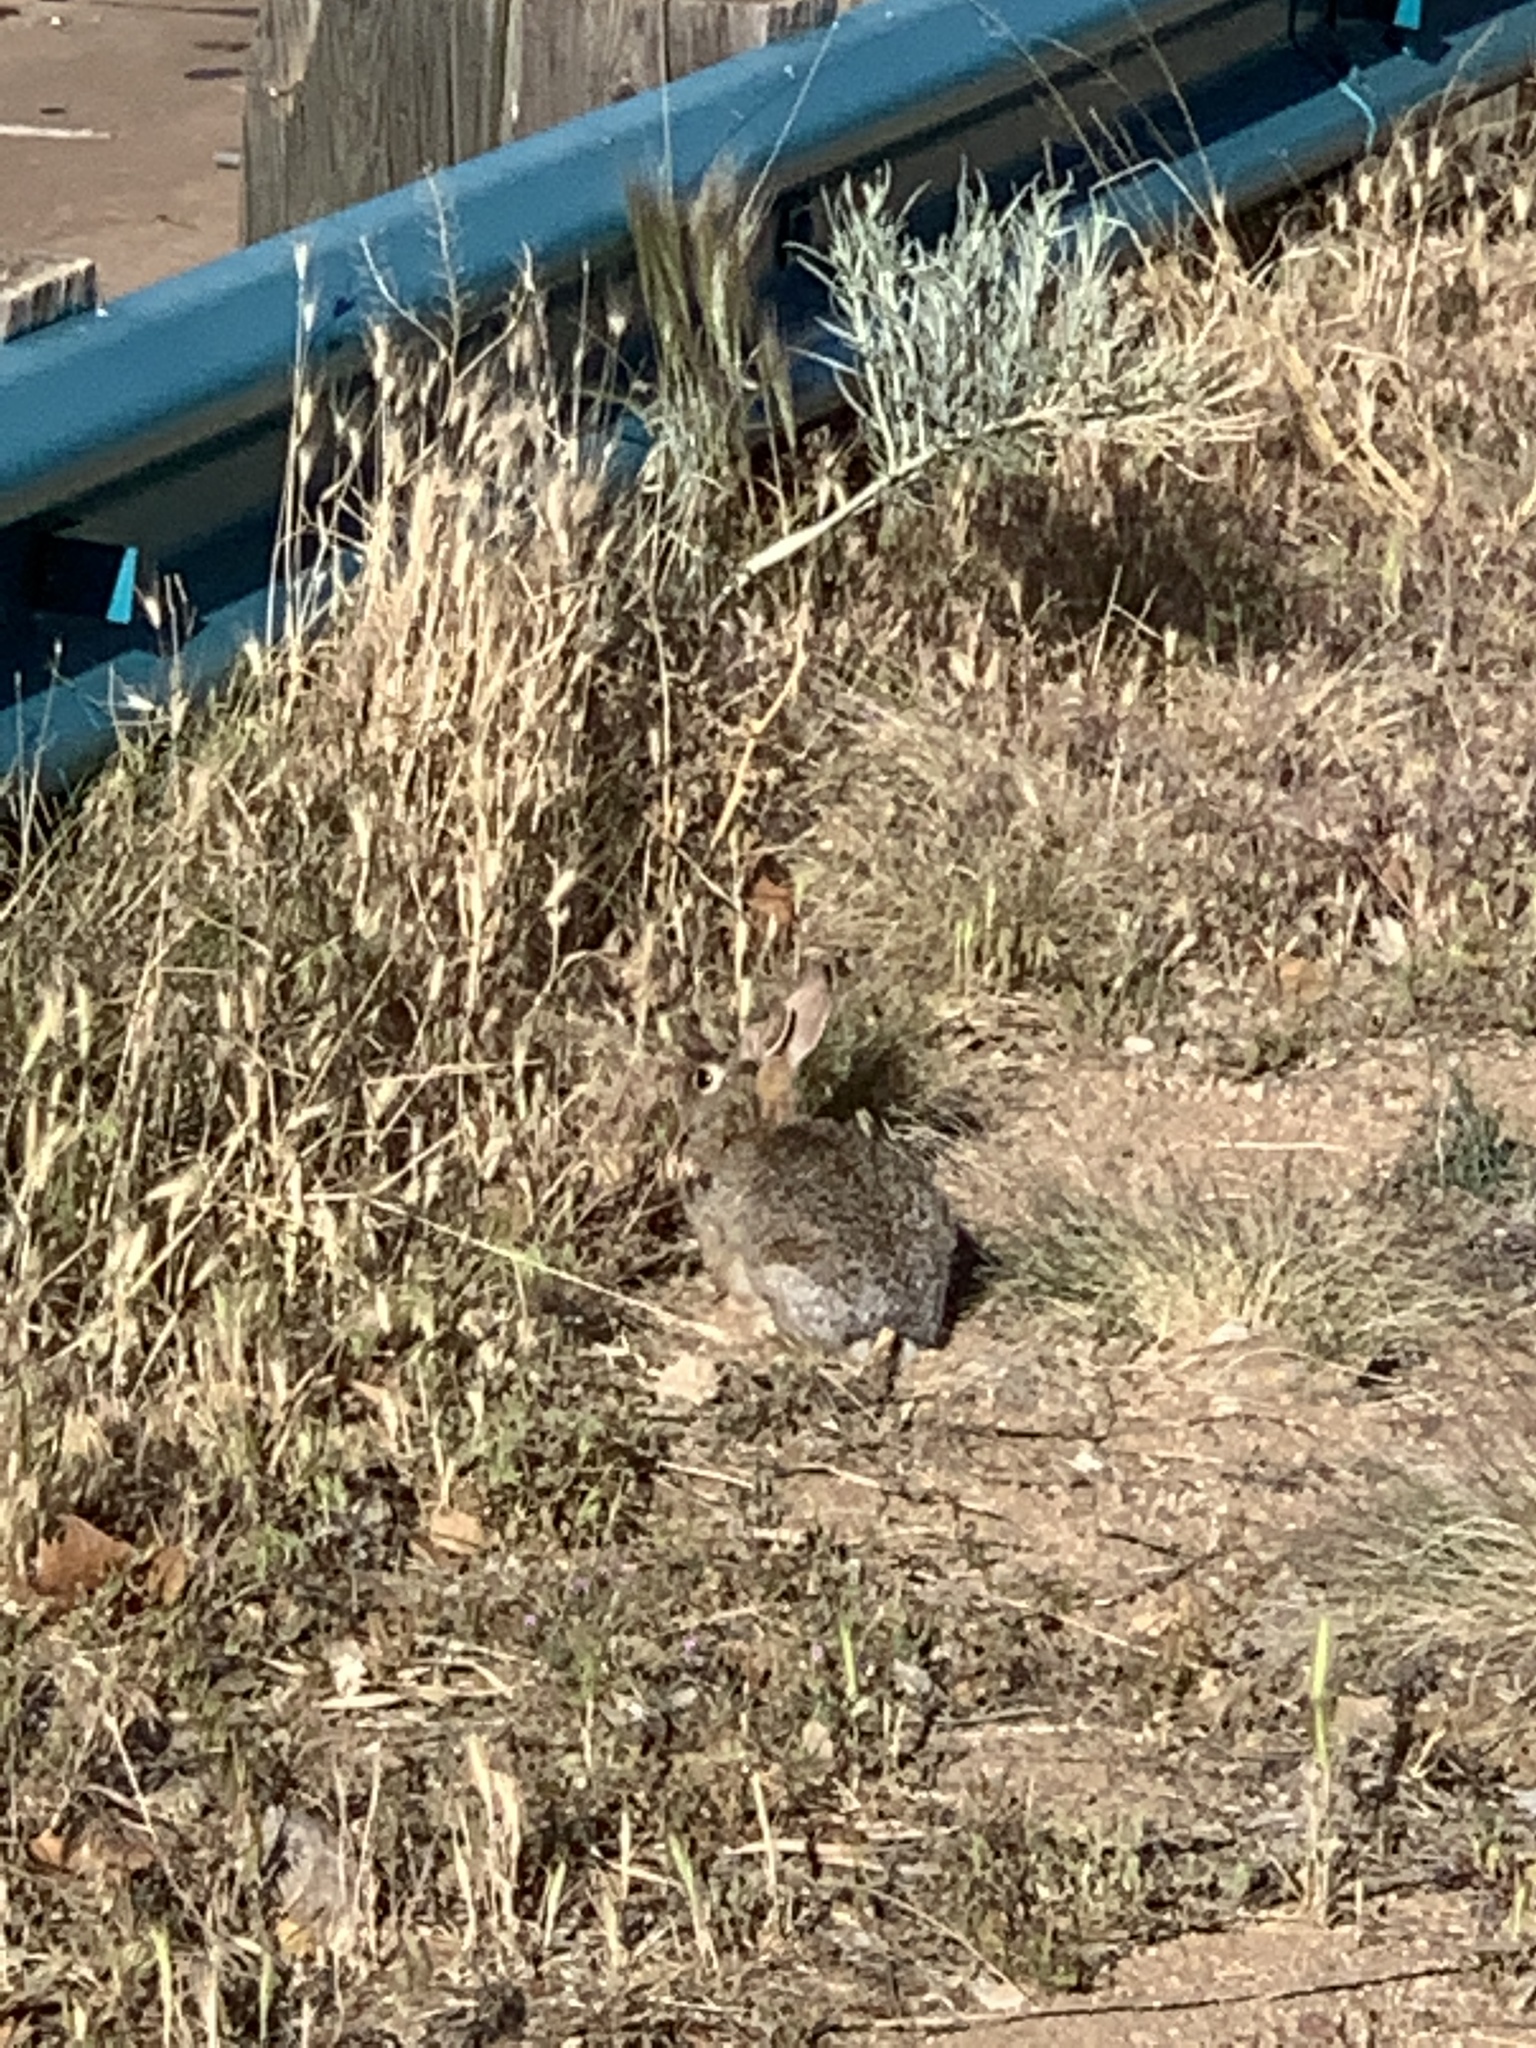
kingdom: Animalia
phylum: Chordata
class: Mammalia
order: Lagomorpha
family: Leporidae
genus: Sylvilagus
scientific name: Sylvilagus audubonii
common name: Desert cottontail
